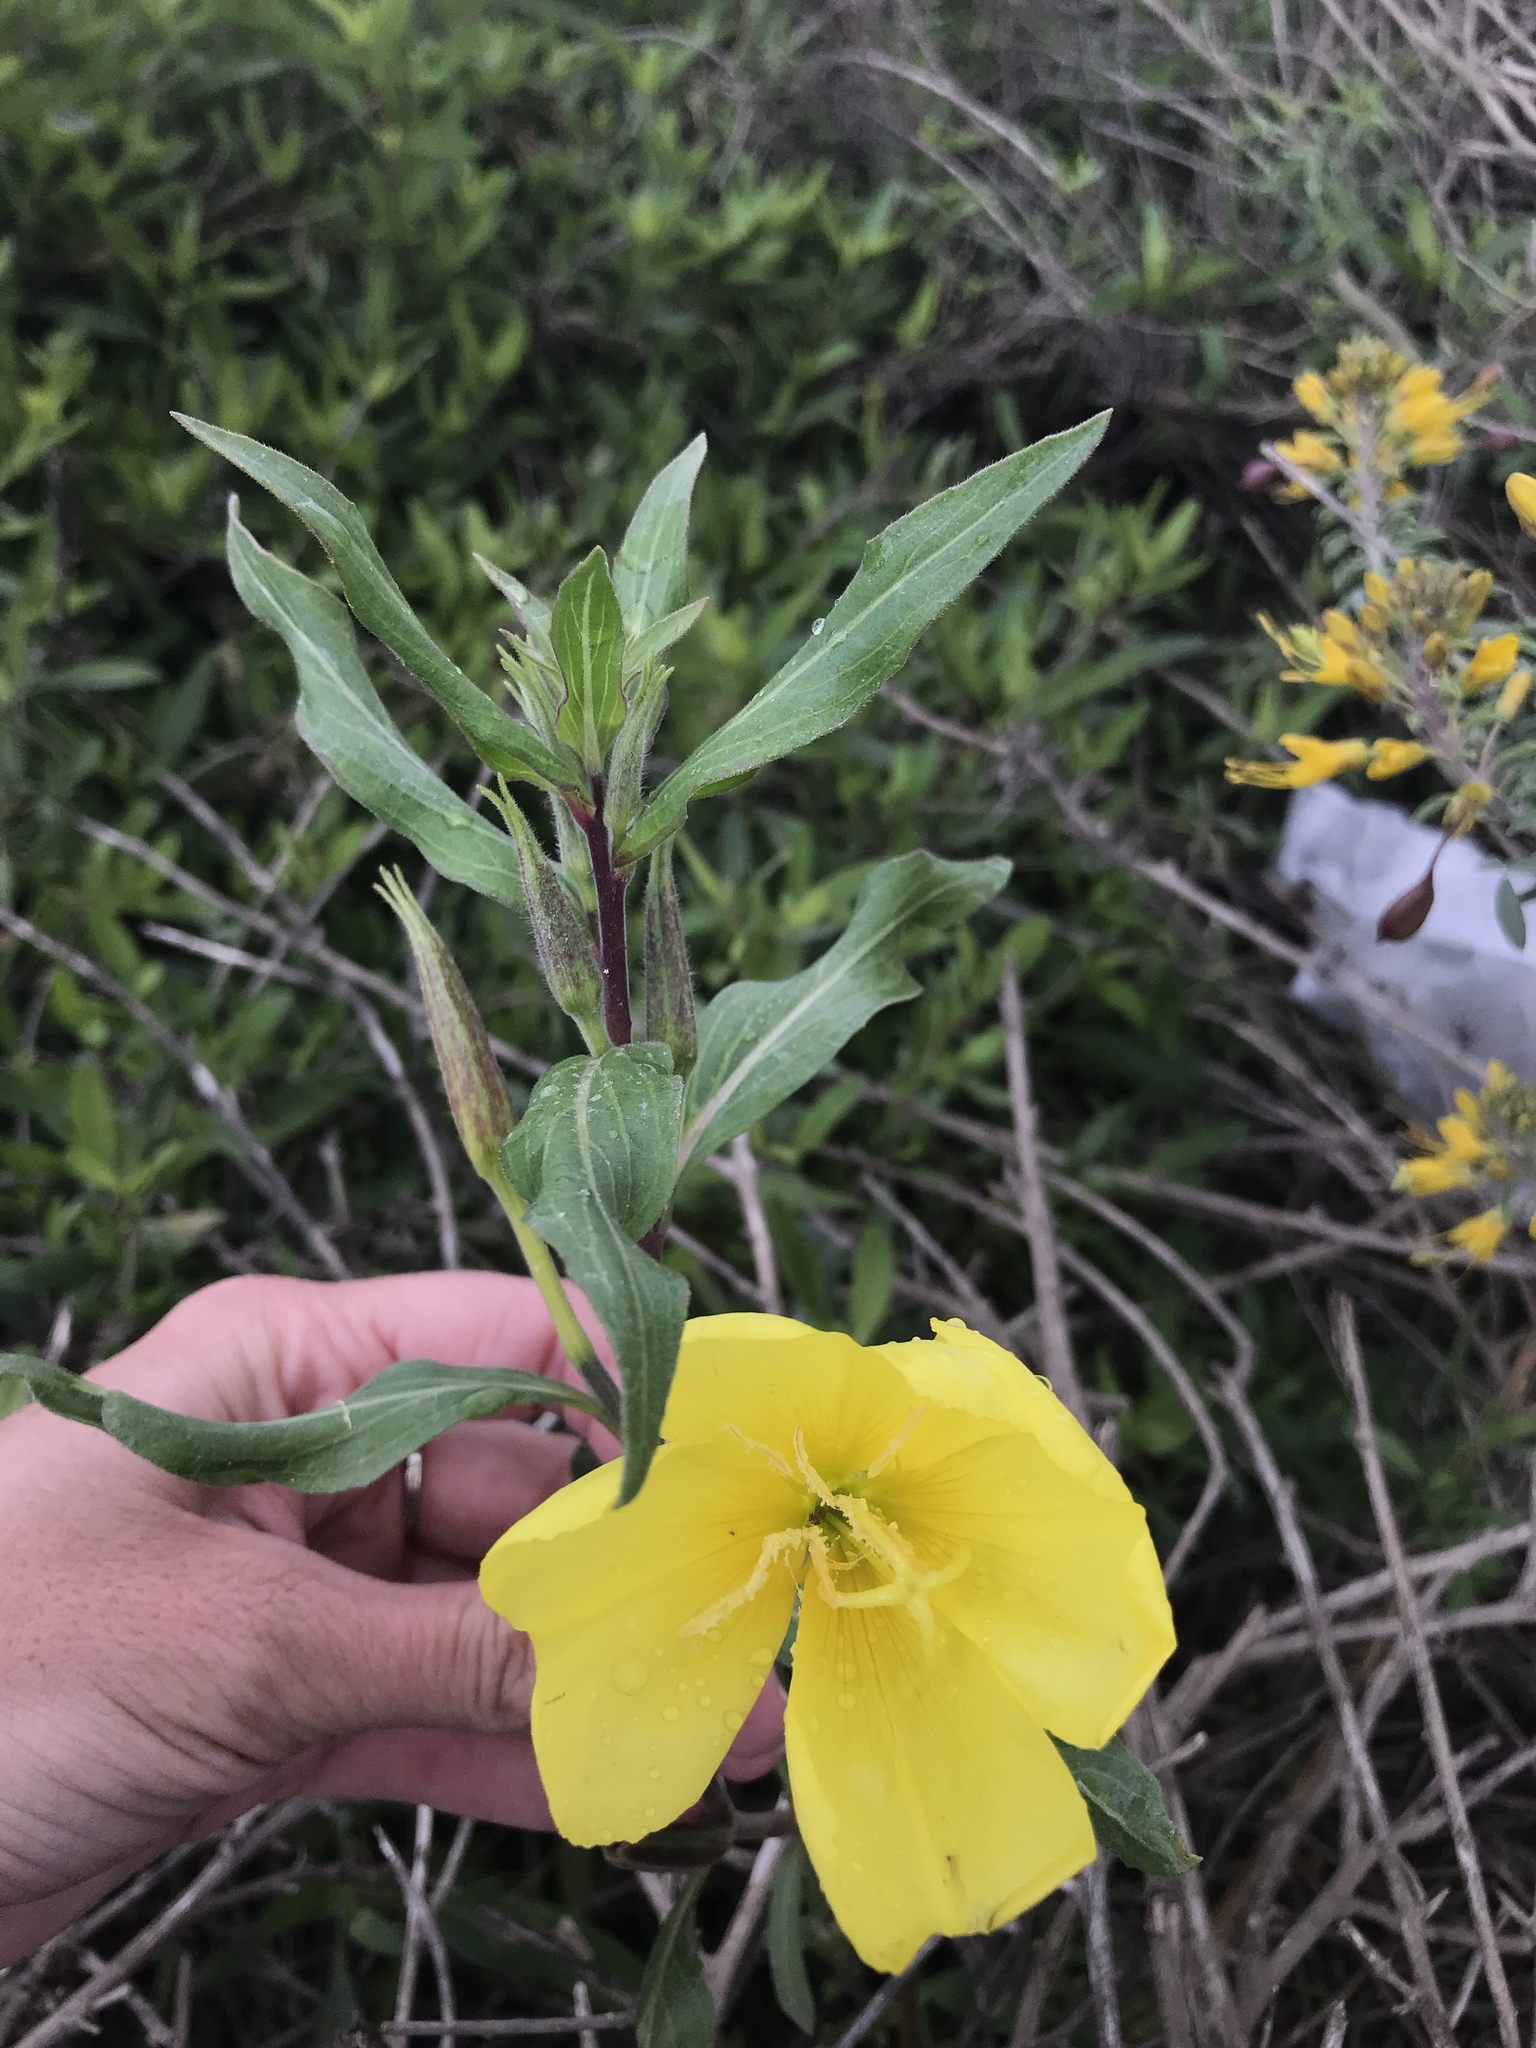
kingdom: Plantae
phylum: Tracheophyta
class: Magnoliopsida
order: Myrtales
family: Onagraceae
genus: Oenothera
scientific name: Oenothera elata
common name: Hooker's evening-primrose
